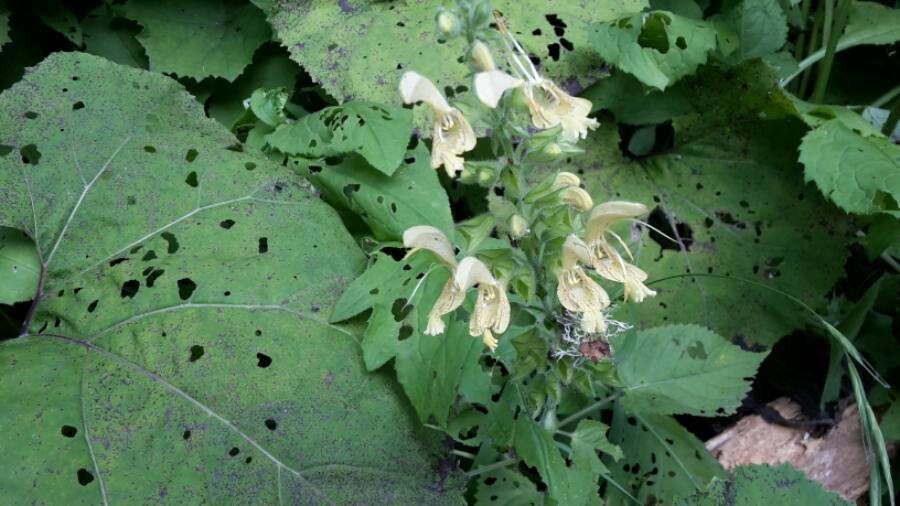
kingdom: Plantae
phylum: Tracheophyta
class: Magnoliopsida
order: Lamiales
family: Lamiaceae
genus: Salvia
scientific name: Salvia glutinosa
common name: Sticky clary
